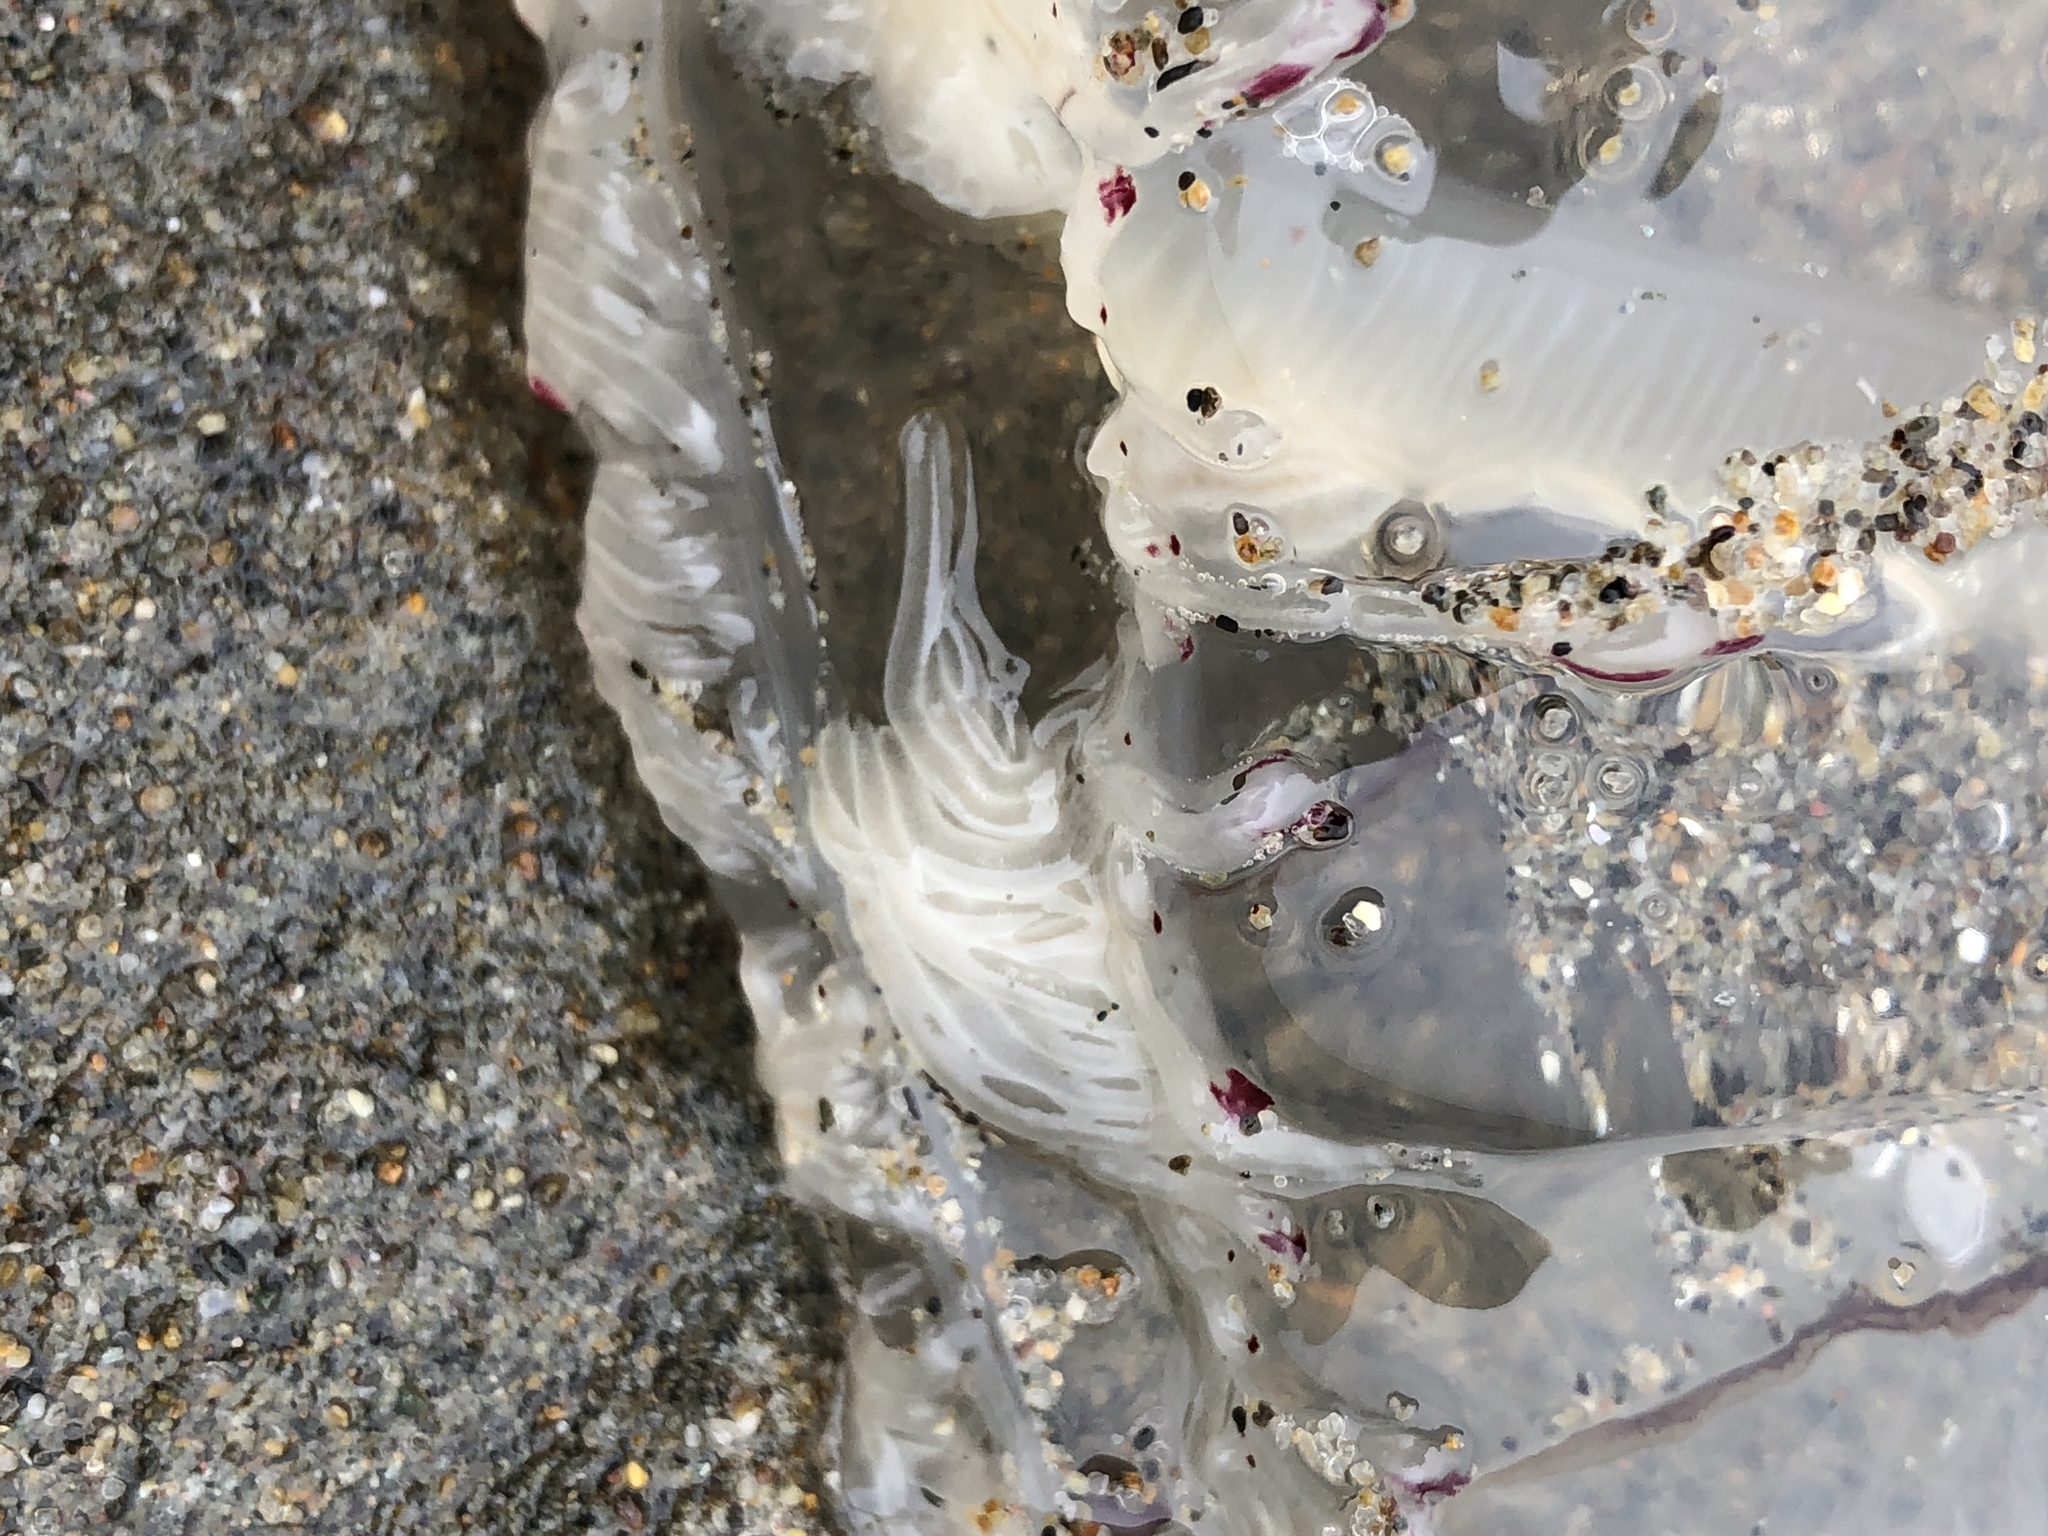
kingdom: Animalia
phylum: Cnidaria
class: Hydrozoa
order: Anthoathecata
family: Corynidae
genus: Scrippsia
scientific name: Scrippsia pacifica
